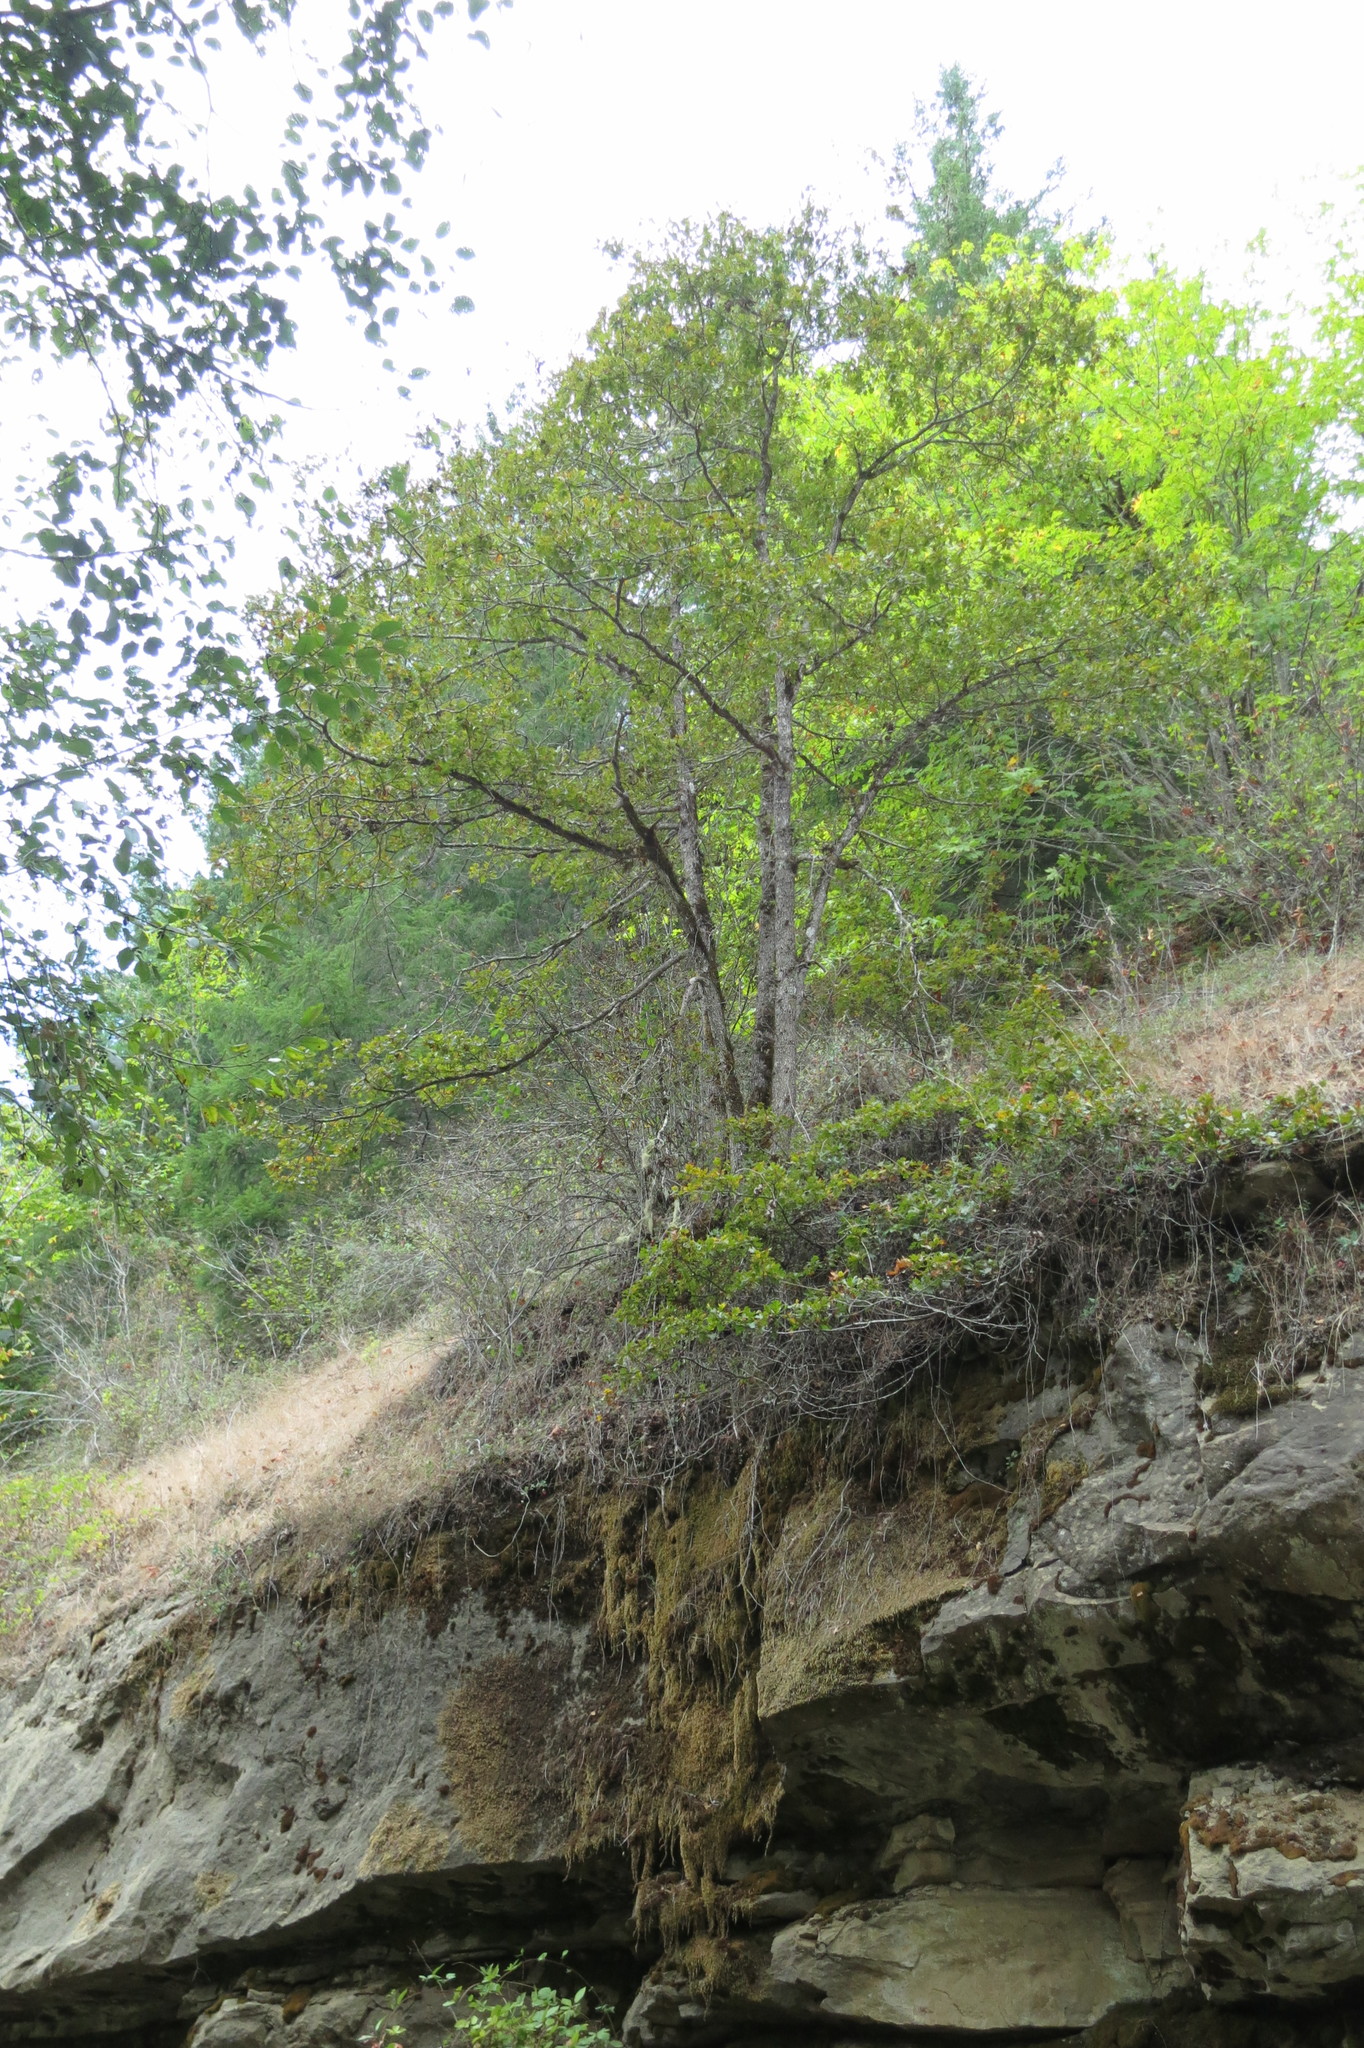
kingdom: Plantae
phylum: Tracheophyta
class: Magnoliopsida
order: Fagales
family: Fagaceae
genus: Quercus
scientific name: Quercus garryana
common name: Garry oak
